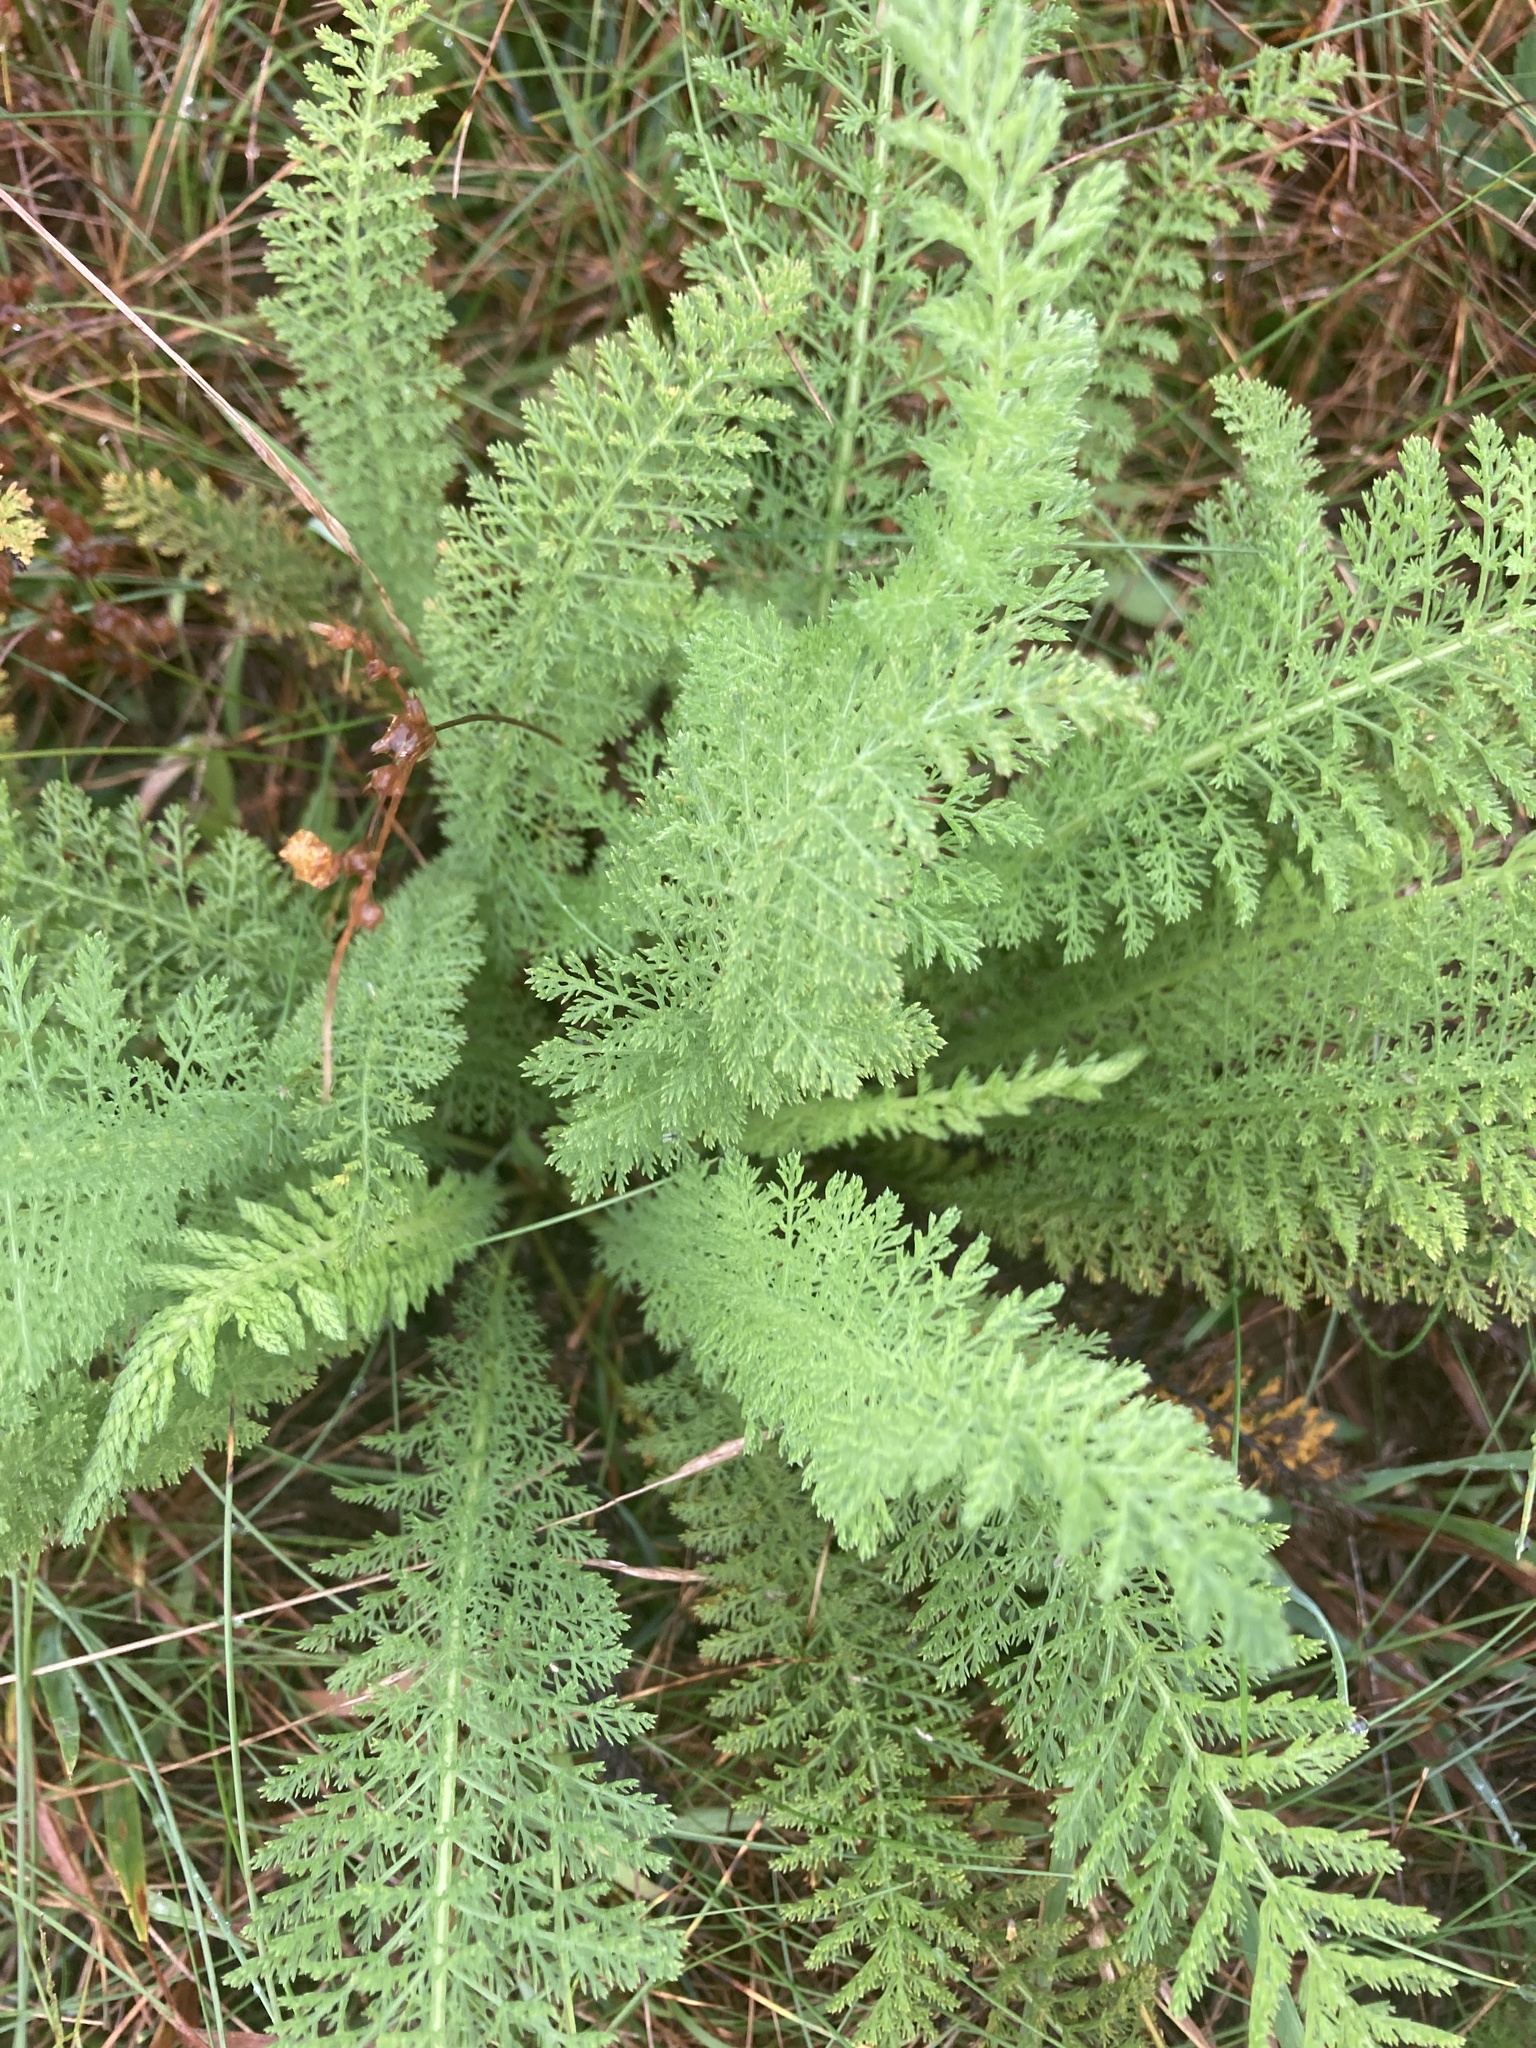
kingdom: Plantae
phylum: Tracheophyta
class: Magnoliopsida
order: Asterales
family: Asteraceae
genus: Achillea
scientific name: Achillea millefolium
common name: Yarrow
